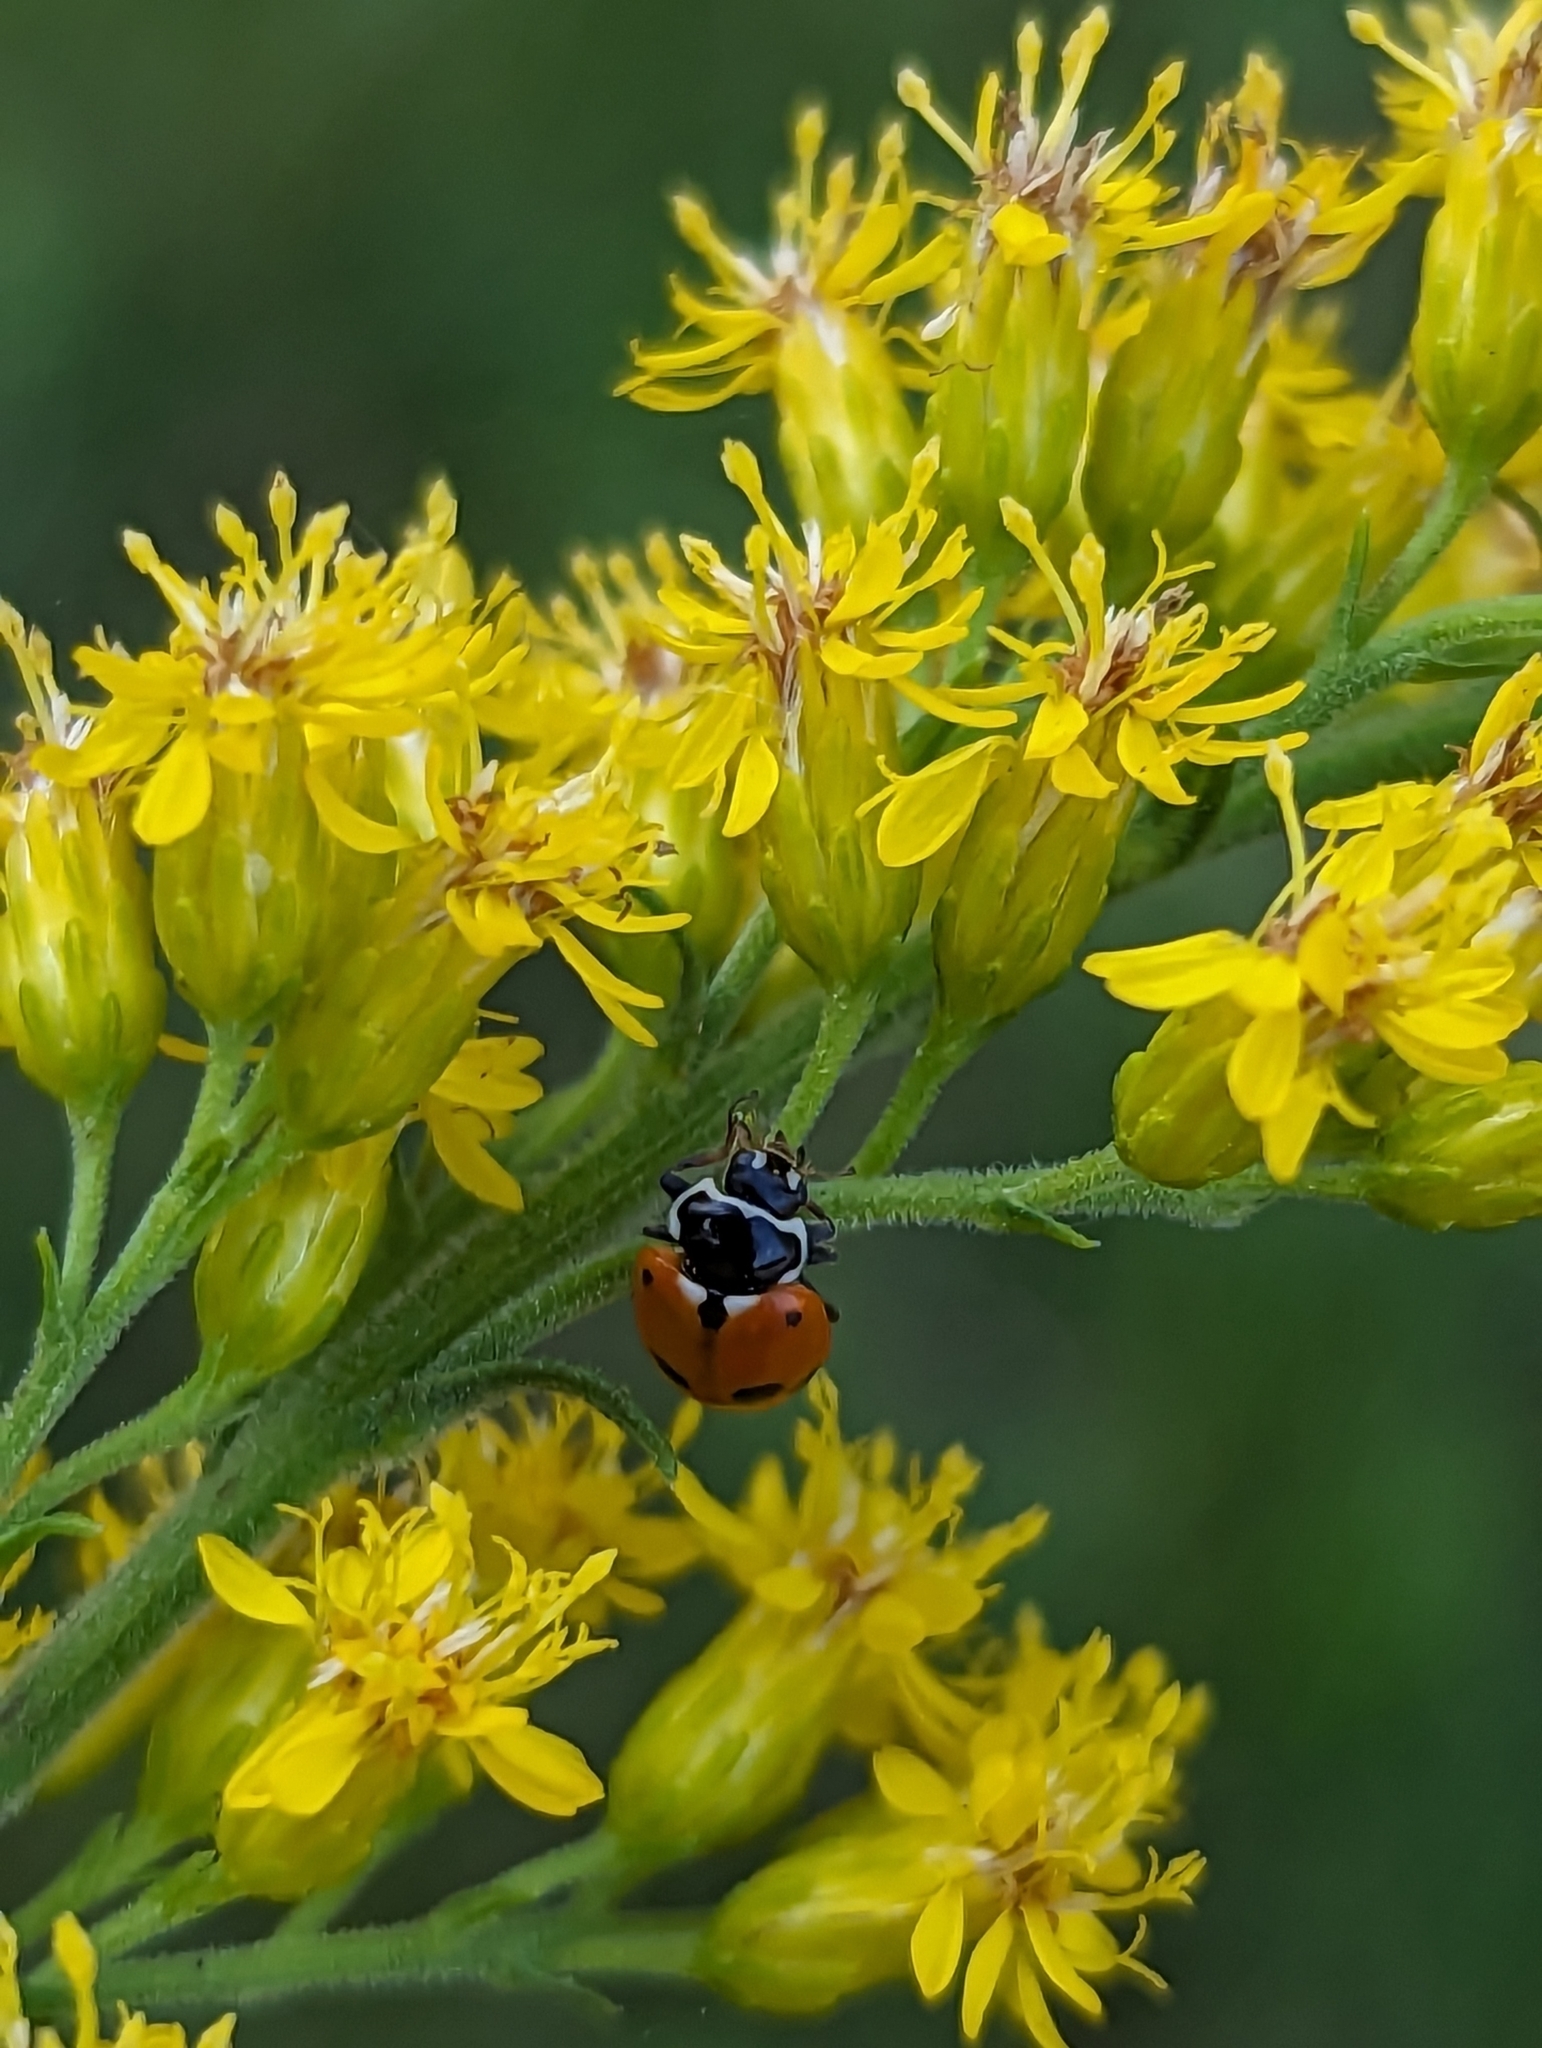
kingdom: Animalia
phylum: Arthropoda
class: Insecta
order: Coleoptera
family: Coccinellidae
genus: Hippodamia
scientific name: Hippodamia variegata
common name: Ladybird beetle
